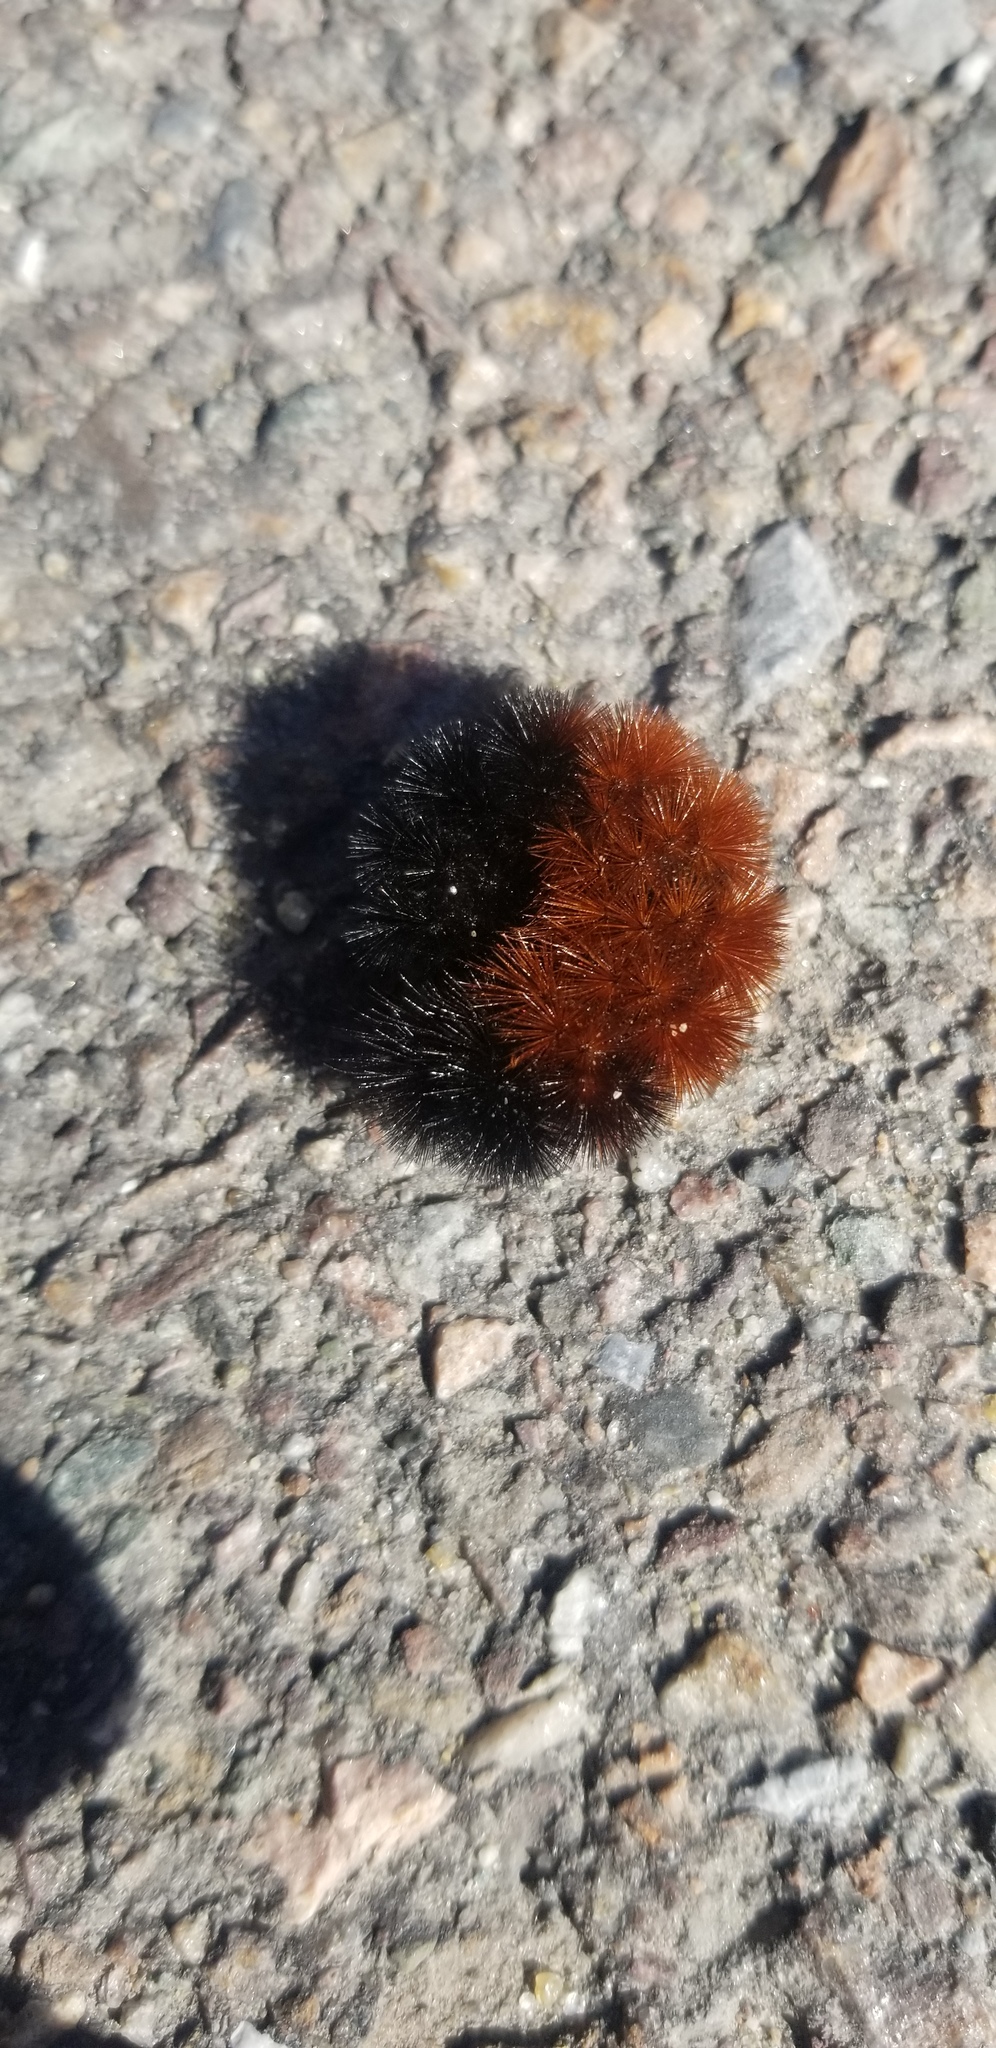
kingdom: Animalia
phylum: Arthropoda
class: Insecta
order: Lepidoptera
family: Erebidae
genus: Pyrrharctia
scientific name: Pyrrharctia isabella
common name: Isabella tiger moth
